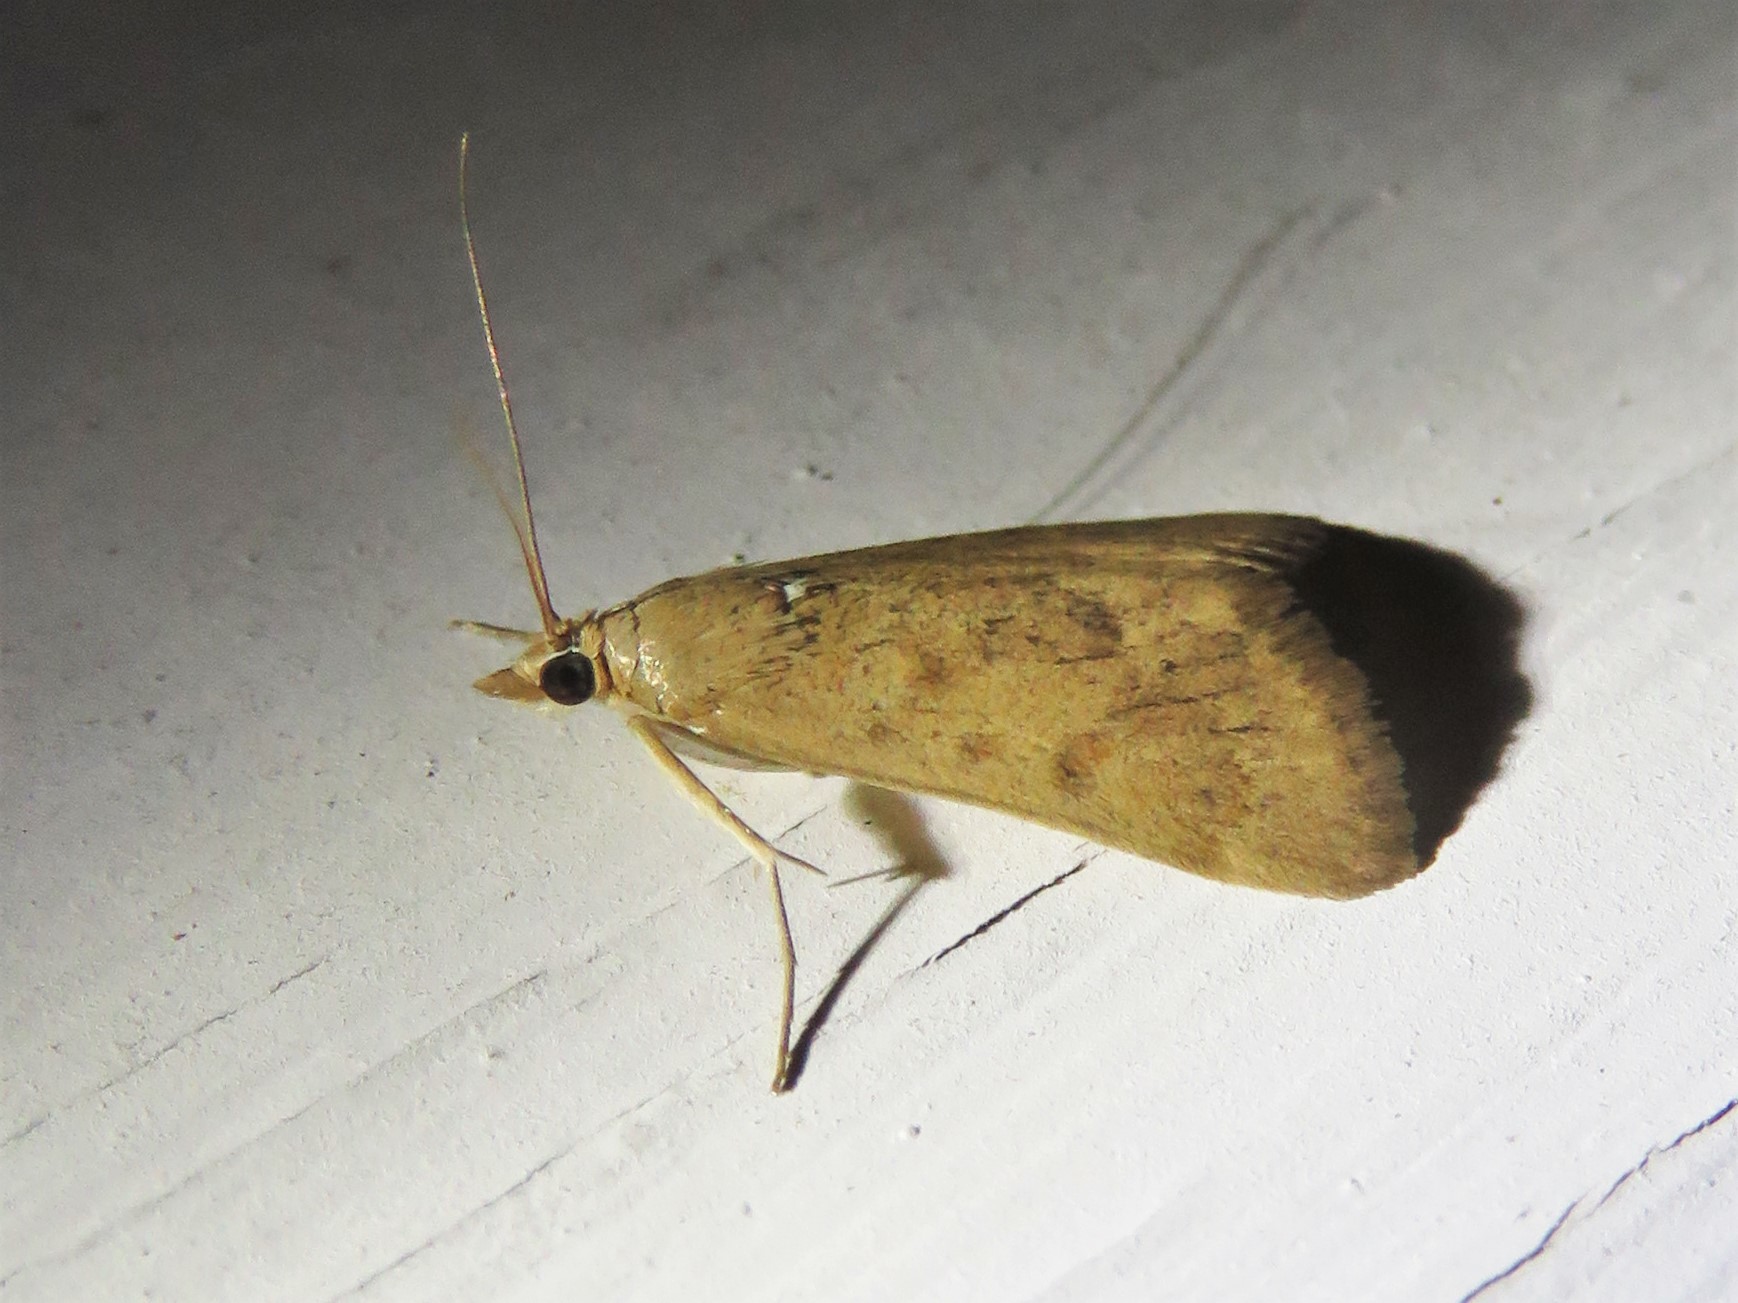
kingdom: Animalia
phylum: Arthropoda
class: Insecta
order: Lepidoptera
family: Crambidae
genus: Achyra
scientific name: Achyra rantalis
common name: Garden webworm
